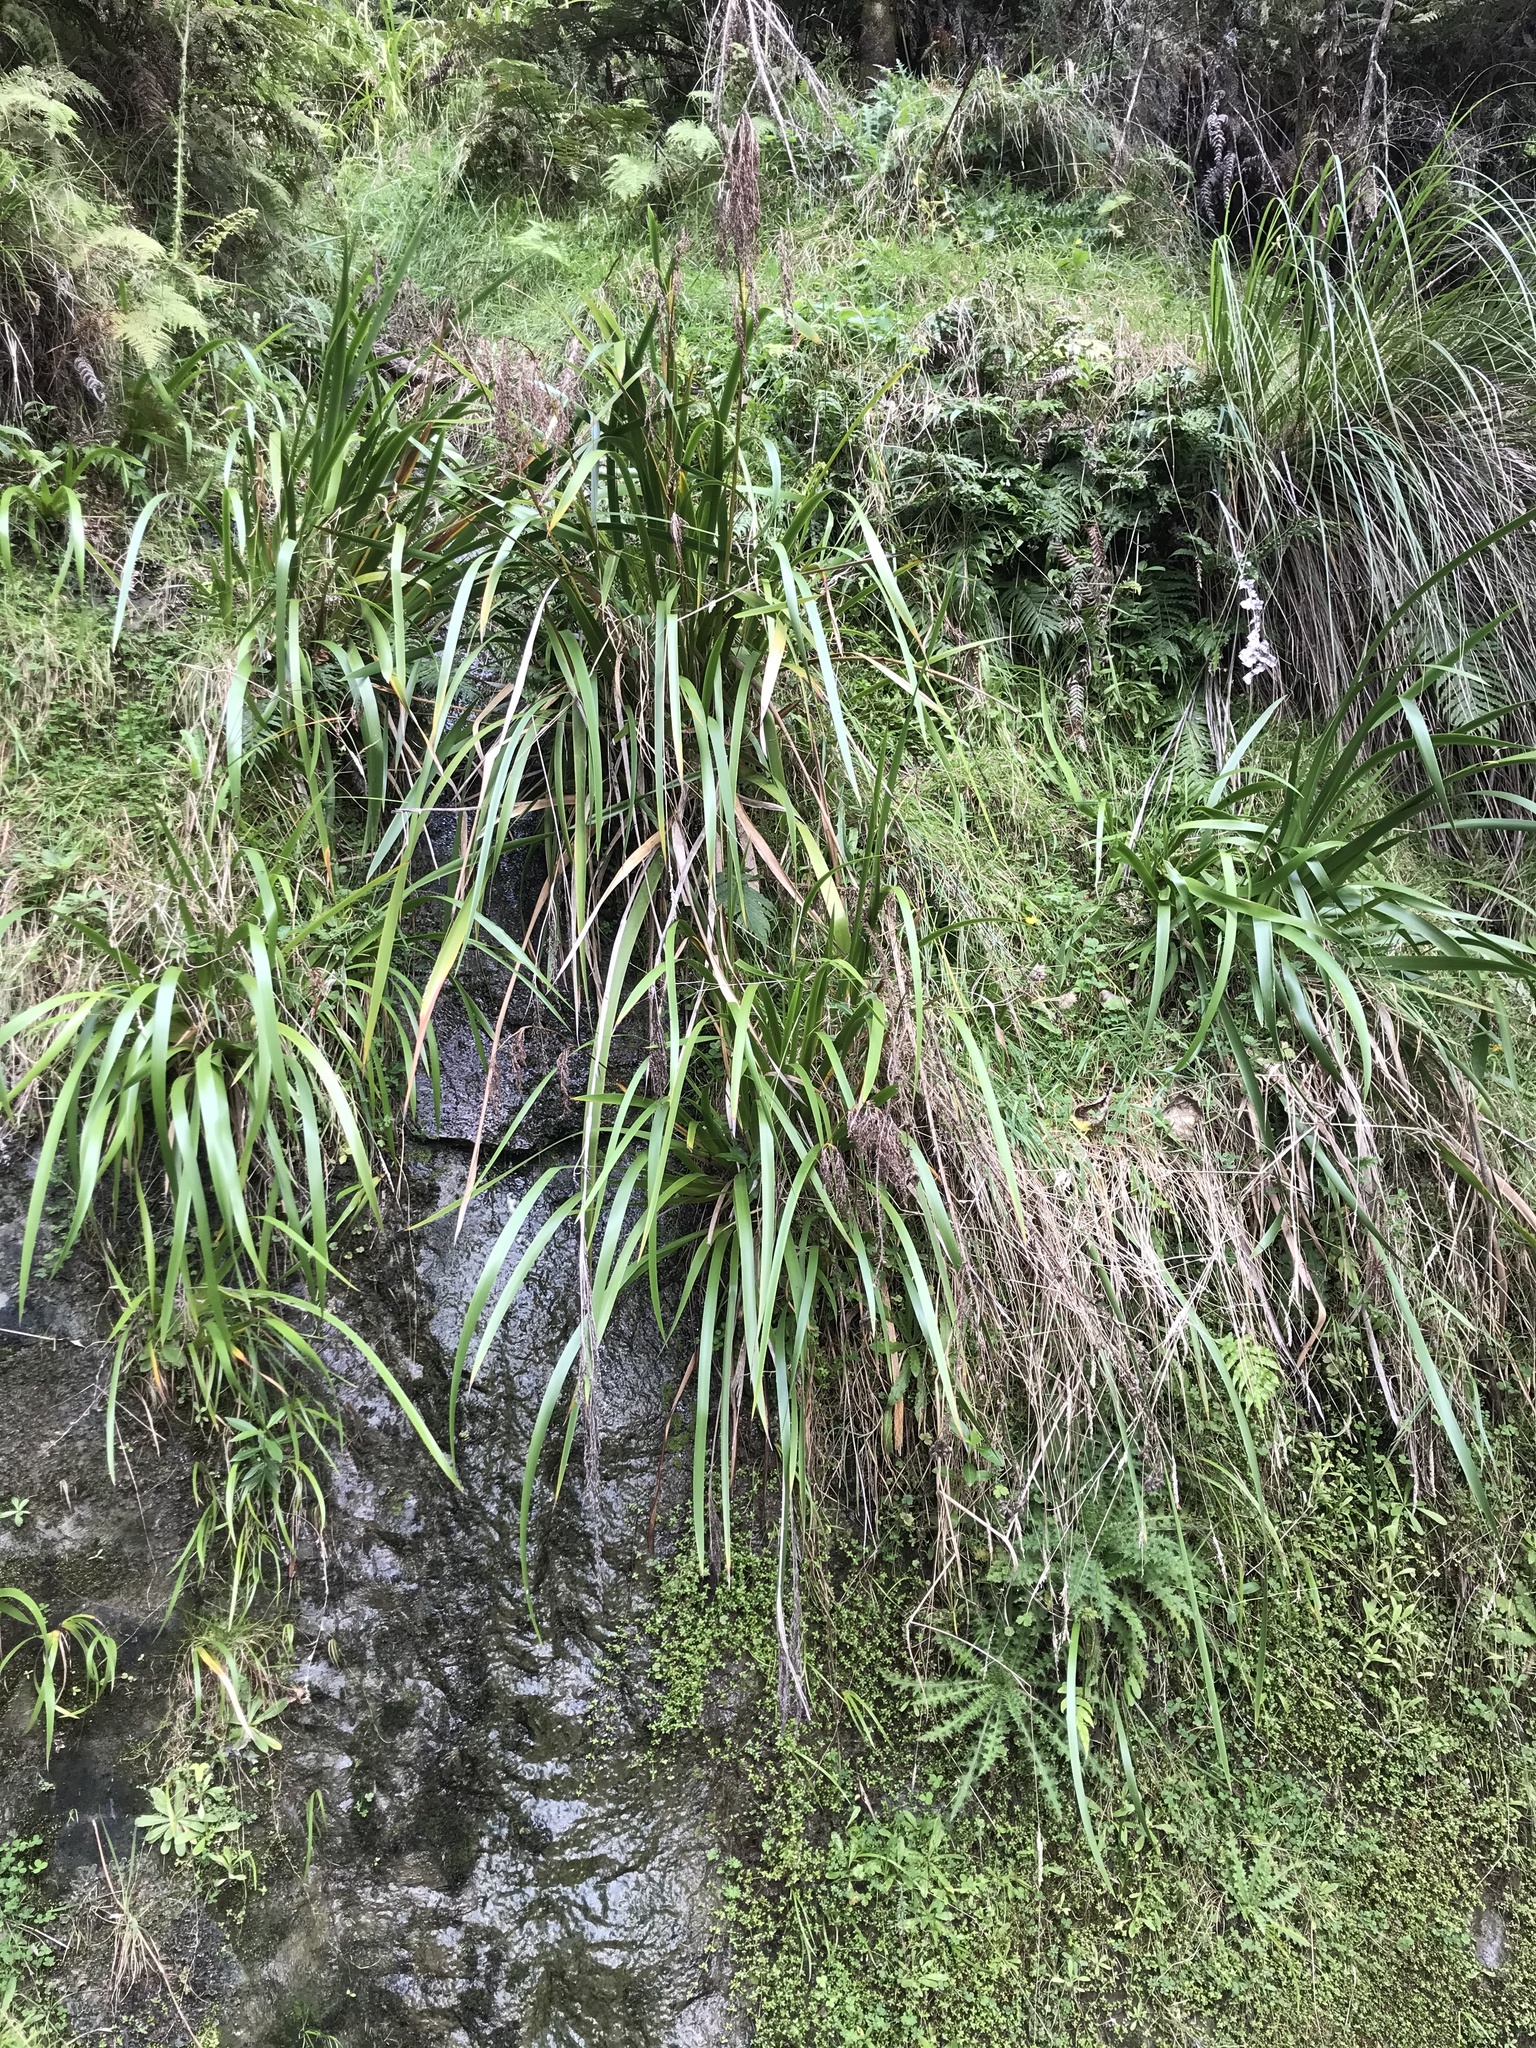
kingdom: Plantae
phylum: Tracheophyta
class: Liliopsida
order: Poales
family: Cyperaceae
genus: Machaerina
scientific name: Machaerina sinclairii
